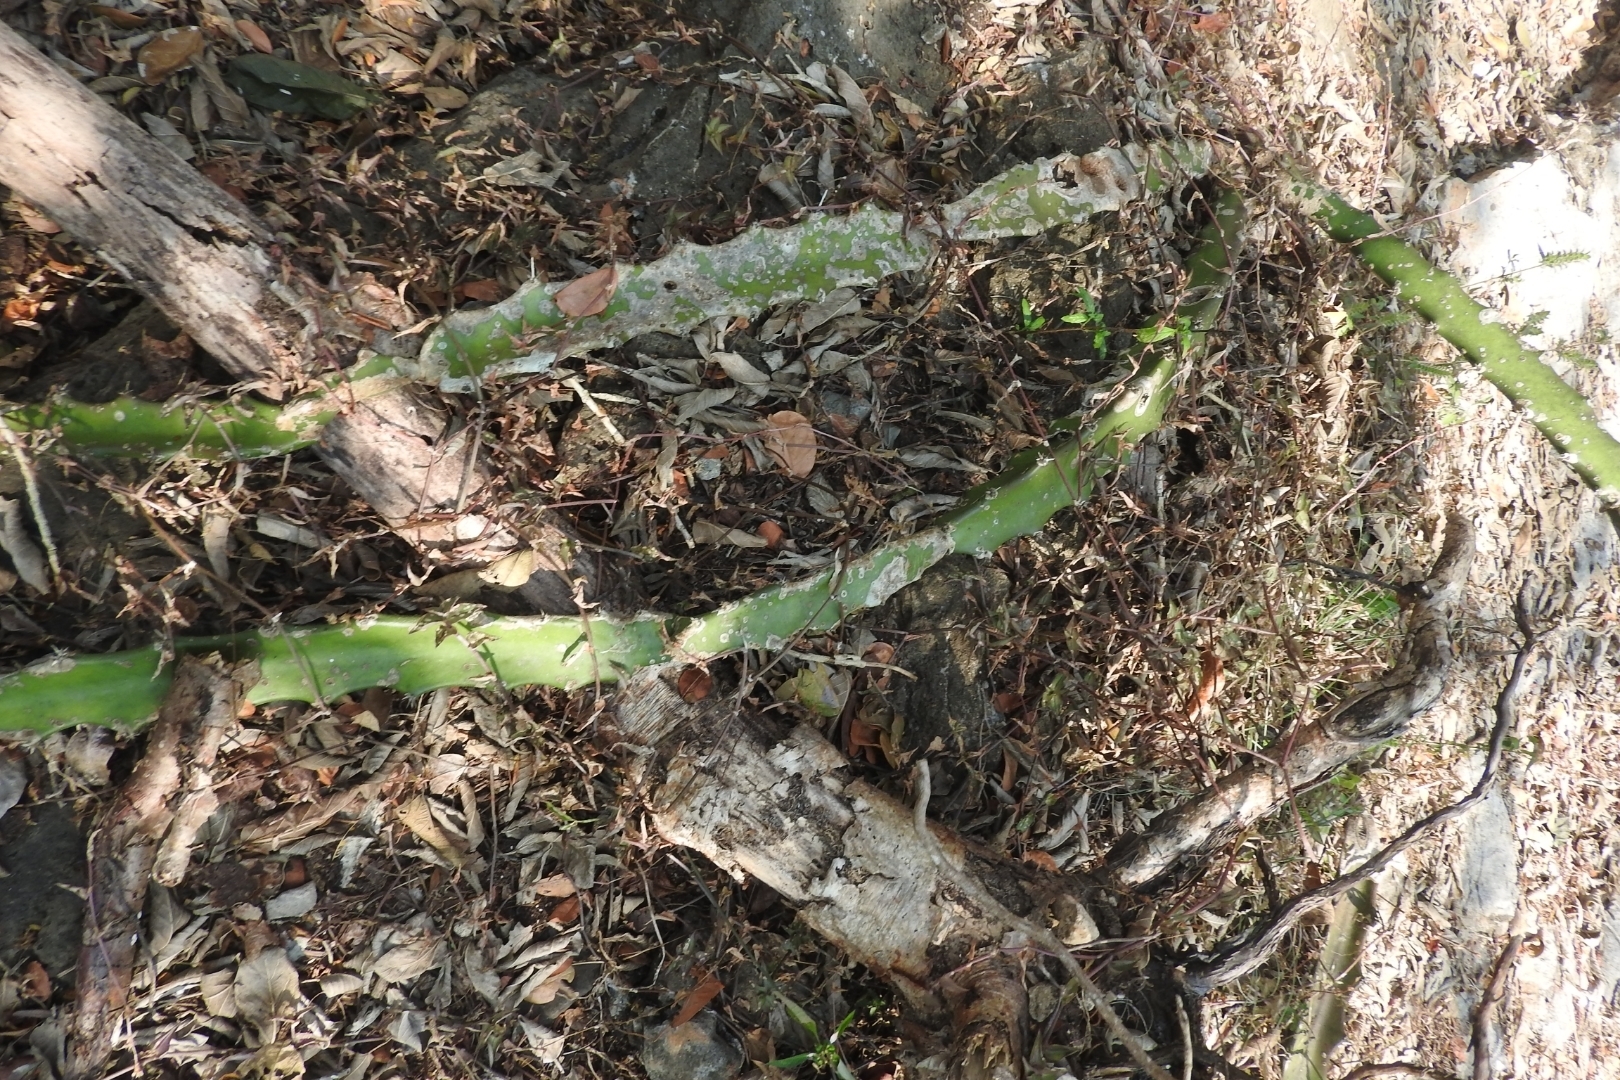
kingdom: Plantae
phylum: Tracheophyta
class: Magnoliopsida
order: Caryophyllales
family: Cactaceae
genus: Acanthocereus
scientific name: Acanthocereus tetragonus
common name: Triangle cactus
